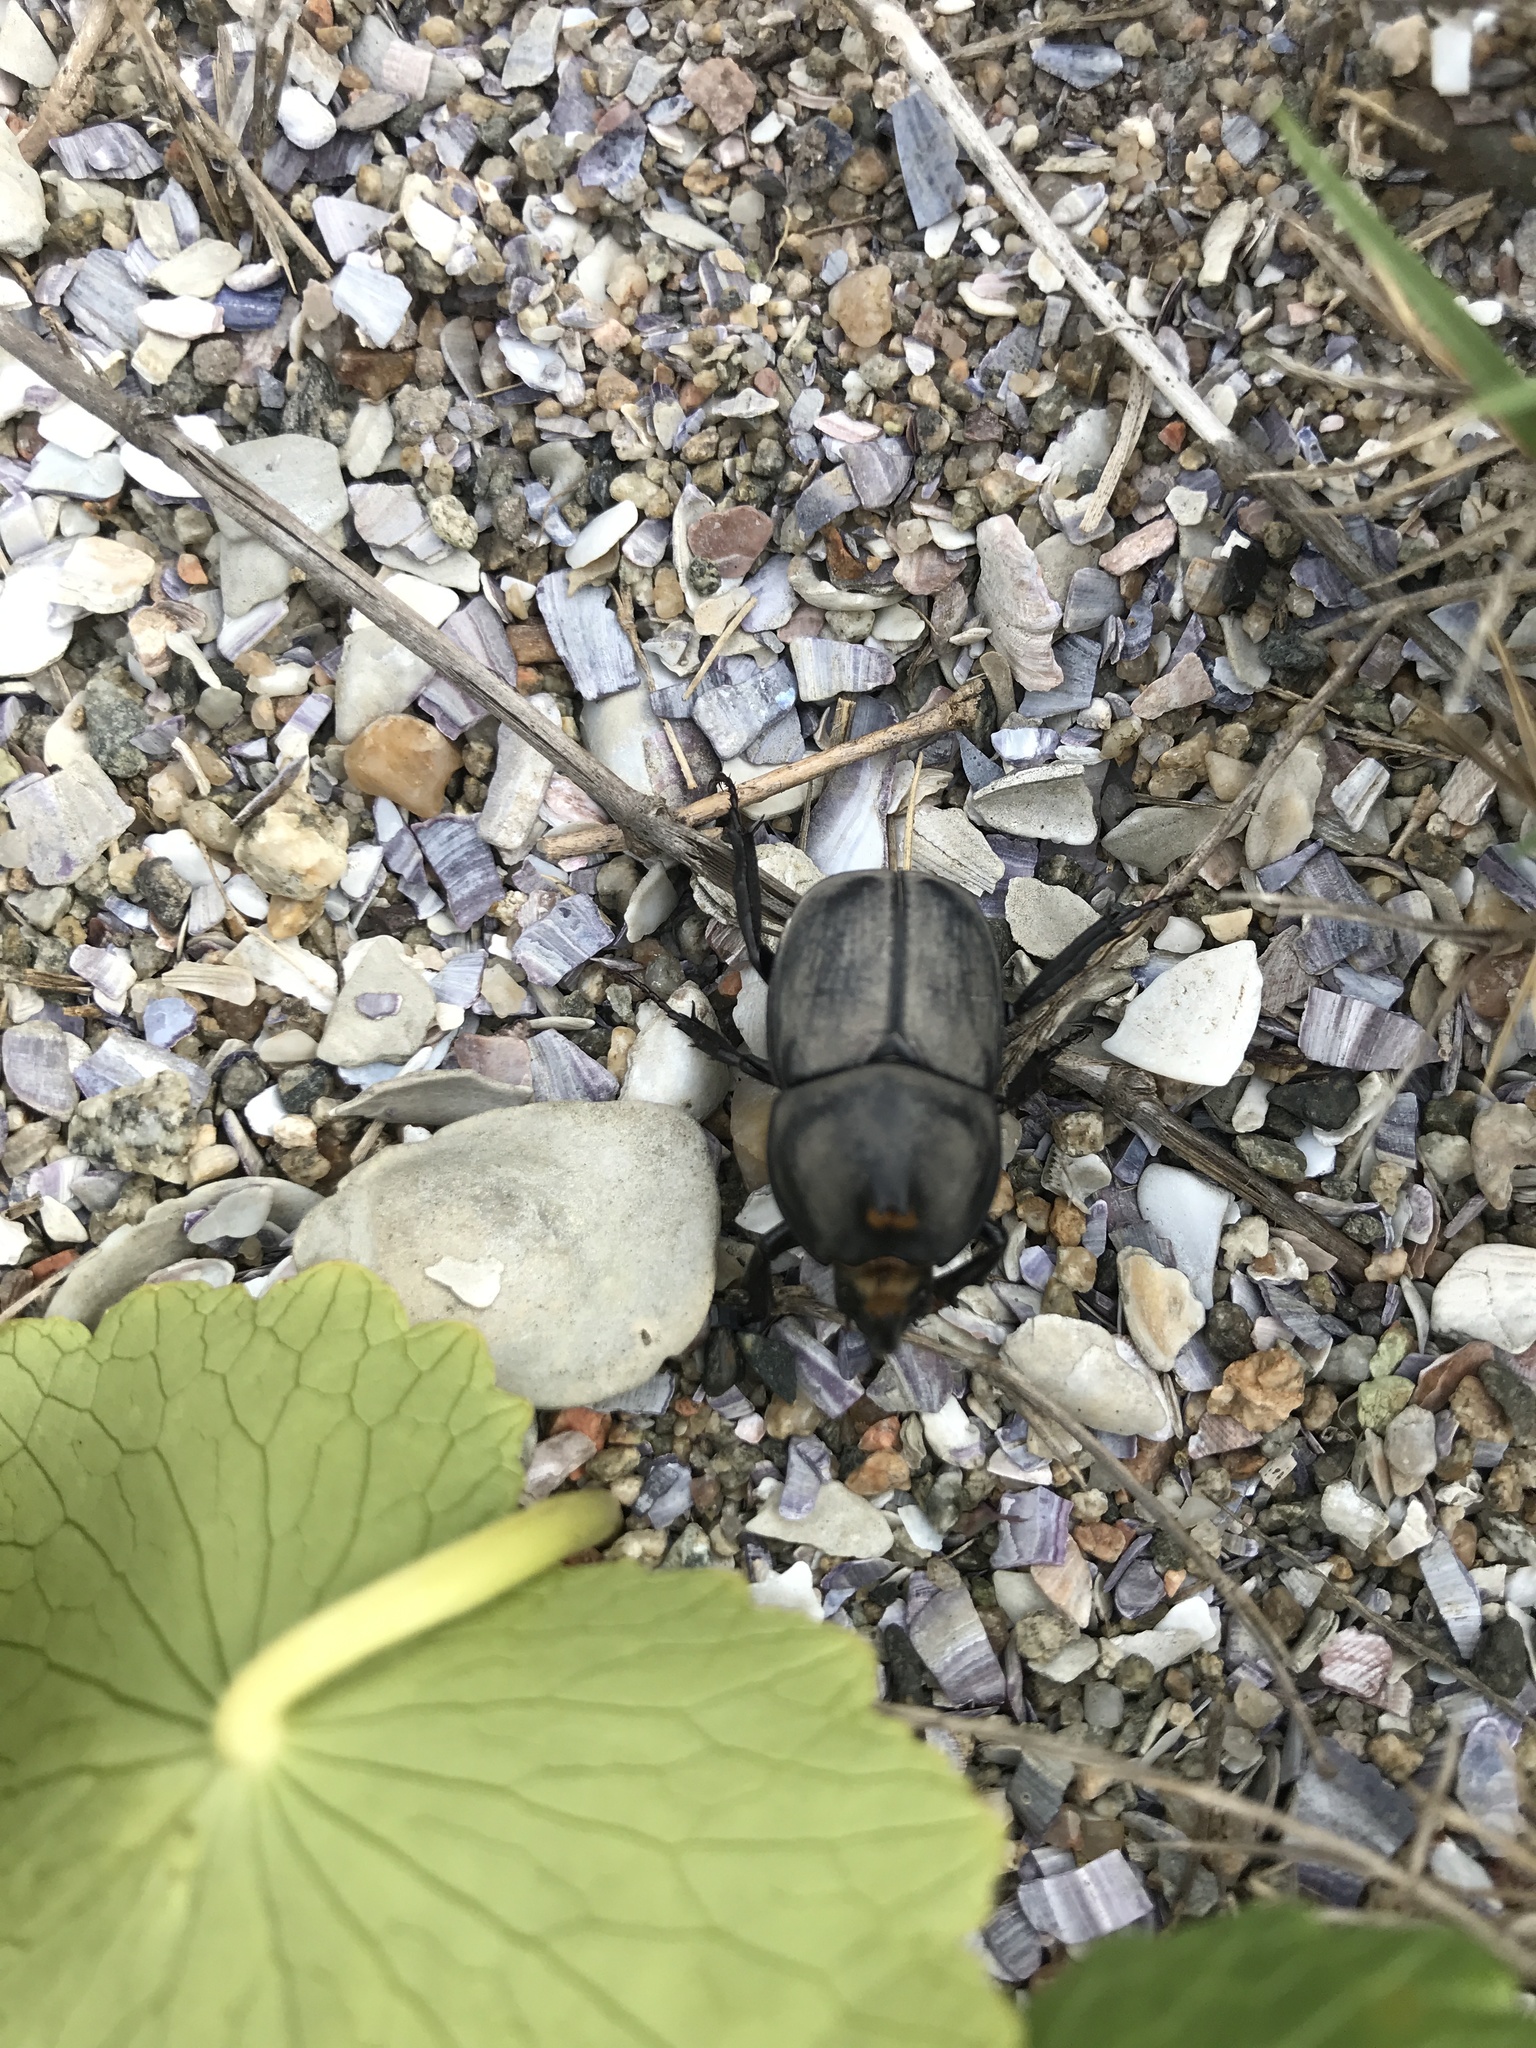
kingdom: Animalia
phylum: Arthropoda
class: Insecta
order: Coleoptera
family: Scarabaeidae
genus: Diloboderus
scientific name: Diloboderus abderus
